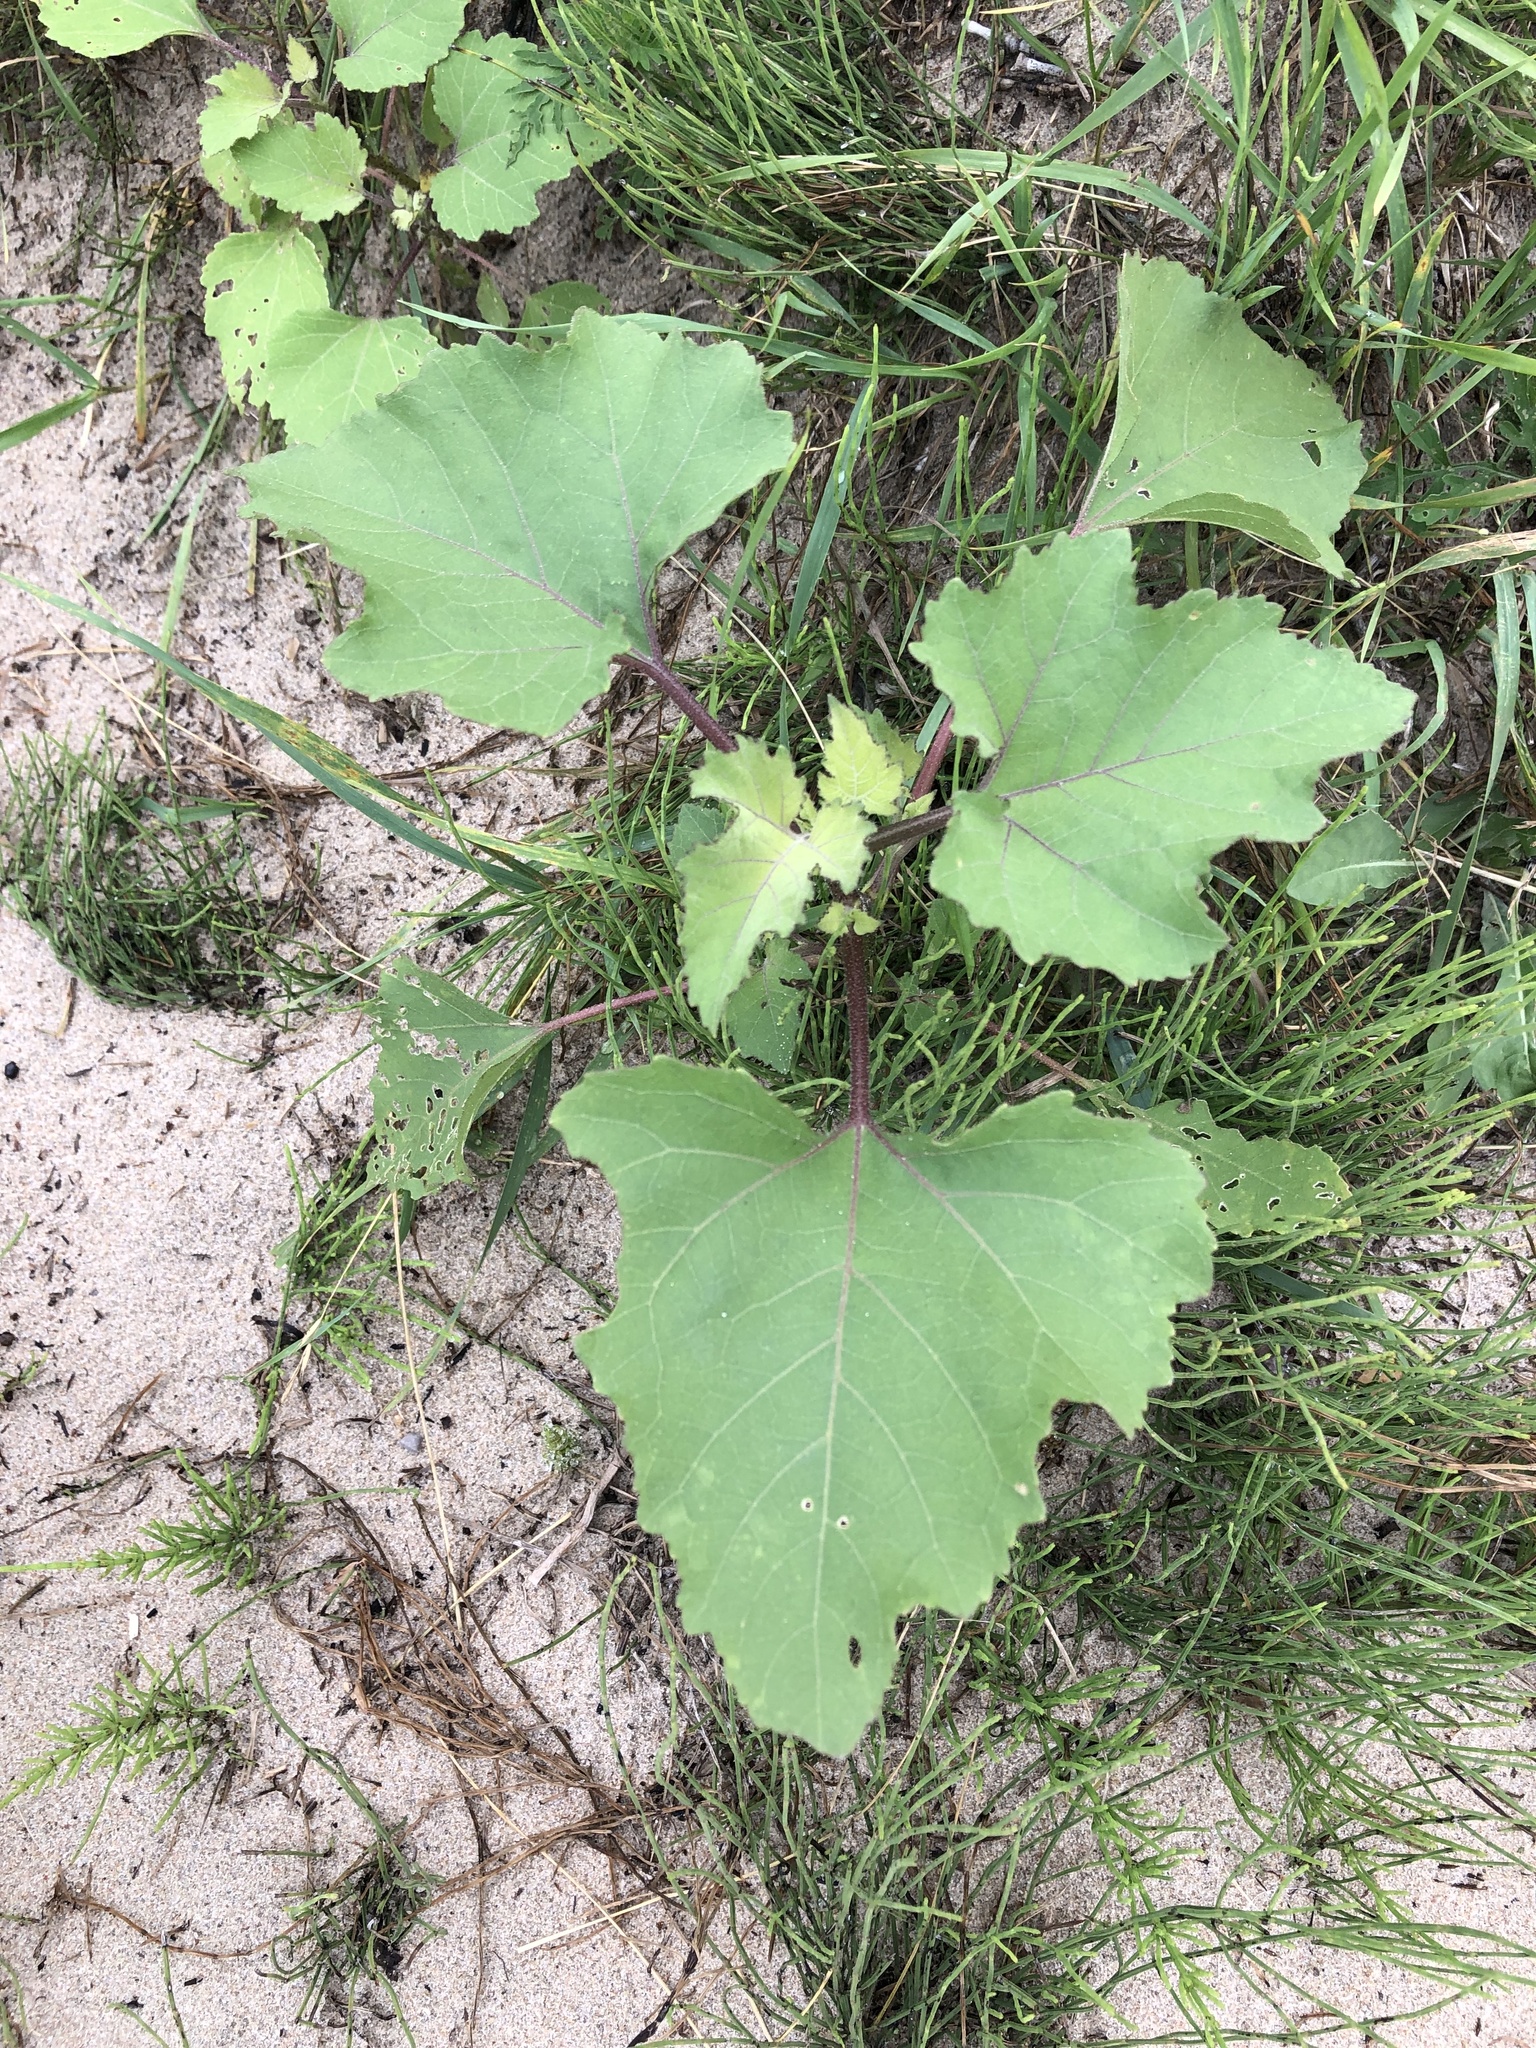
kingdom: Plantae
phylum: Tracheophyta
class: Magnoliopsida
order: Asterales
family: Asteraceae
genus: Xanthium
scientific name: Xanthium strumarium
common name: Rough cocklebur
